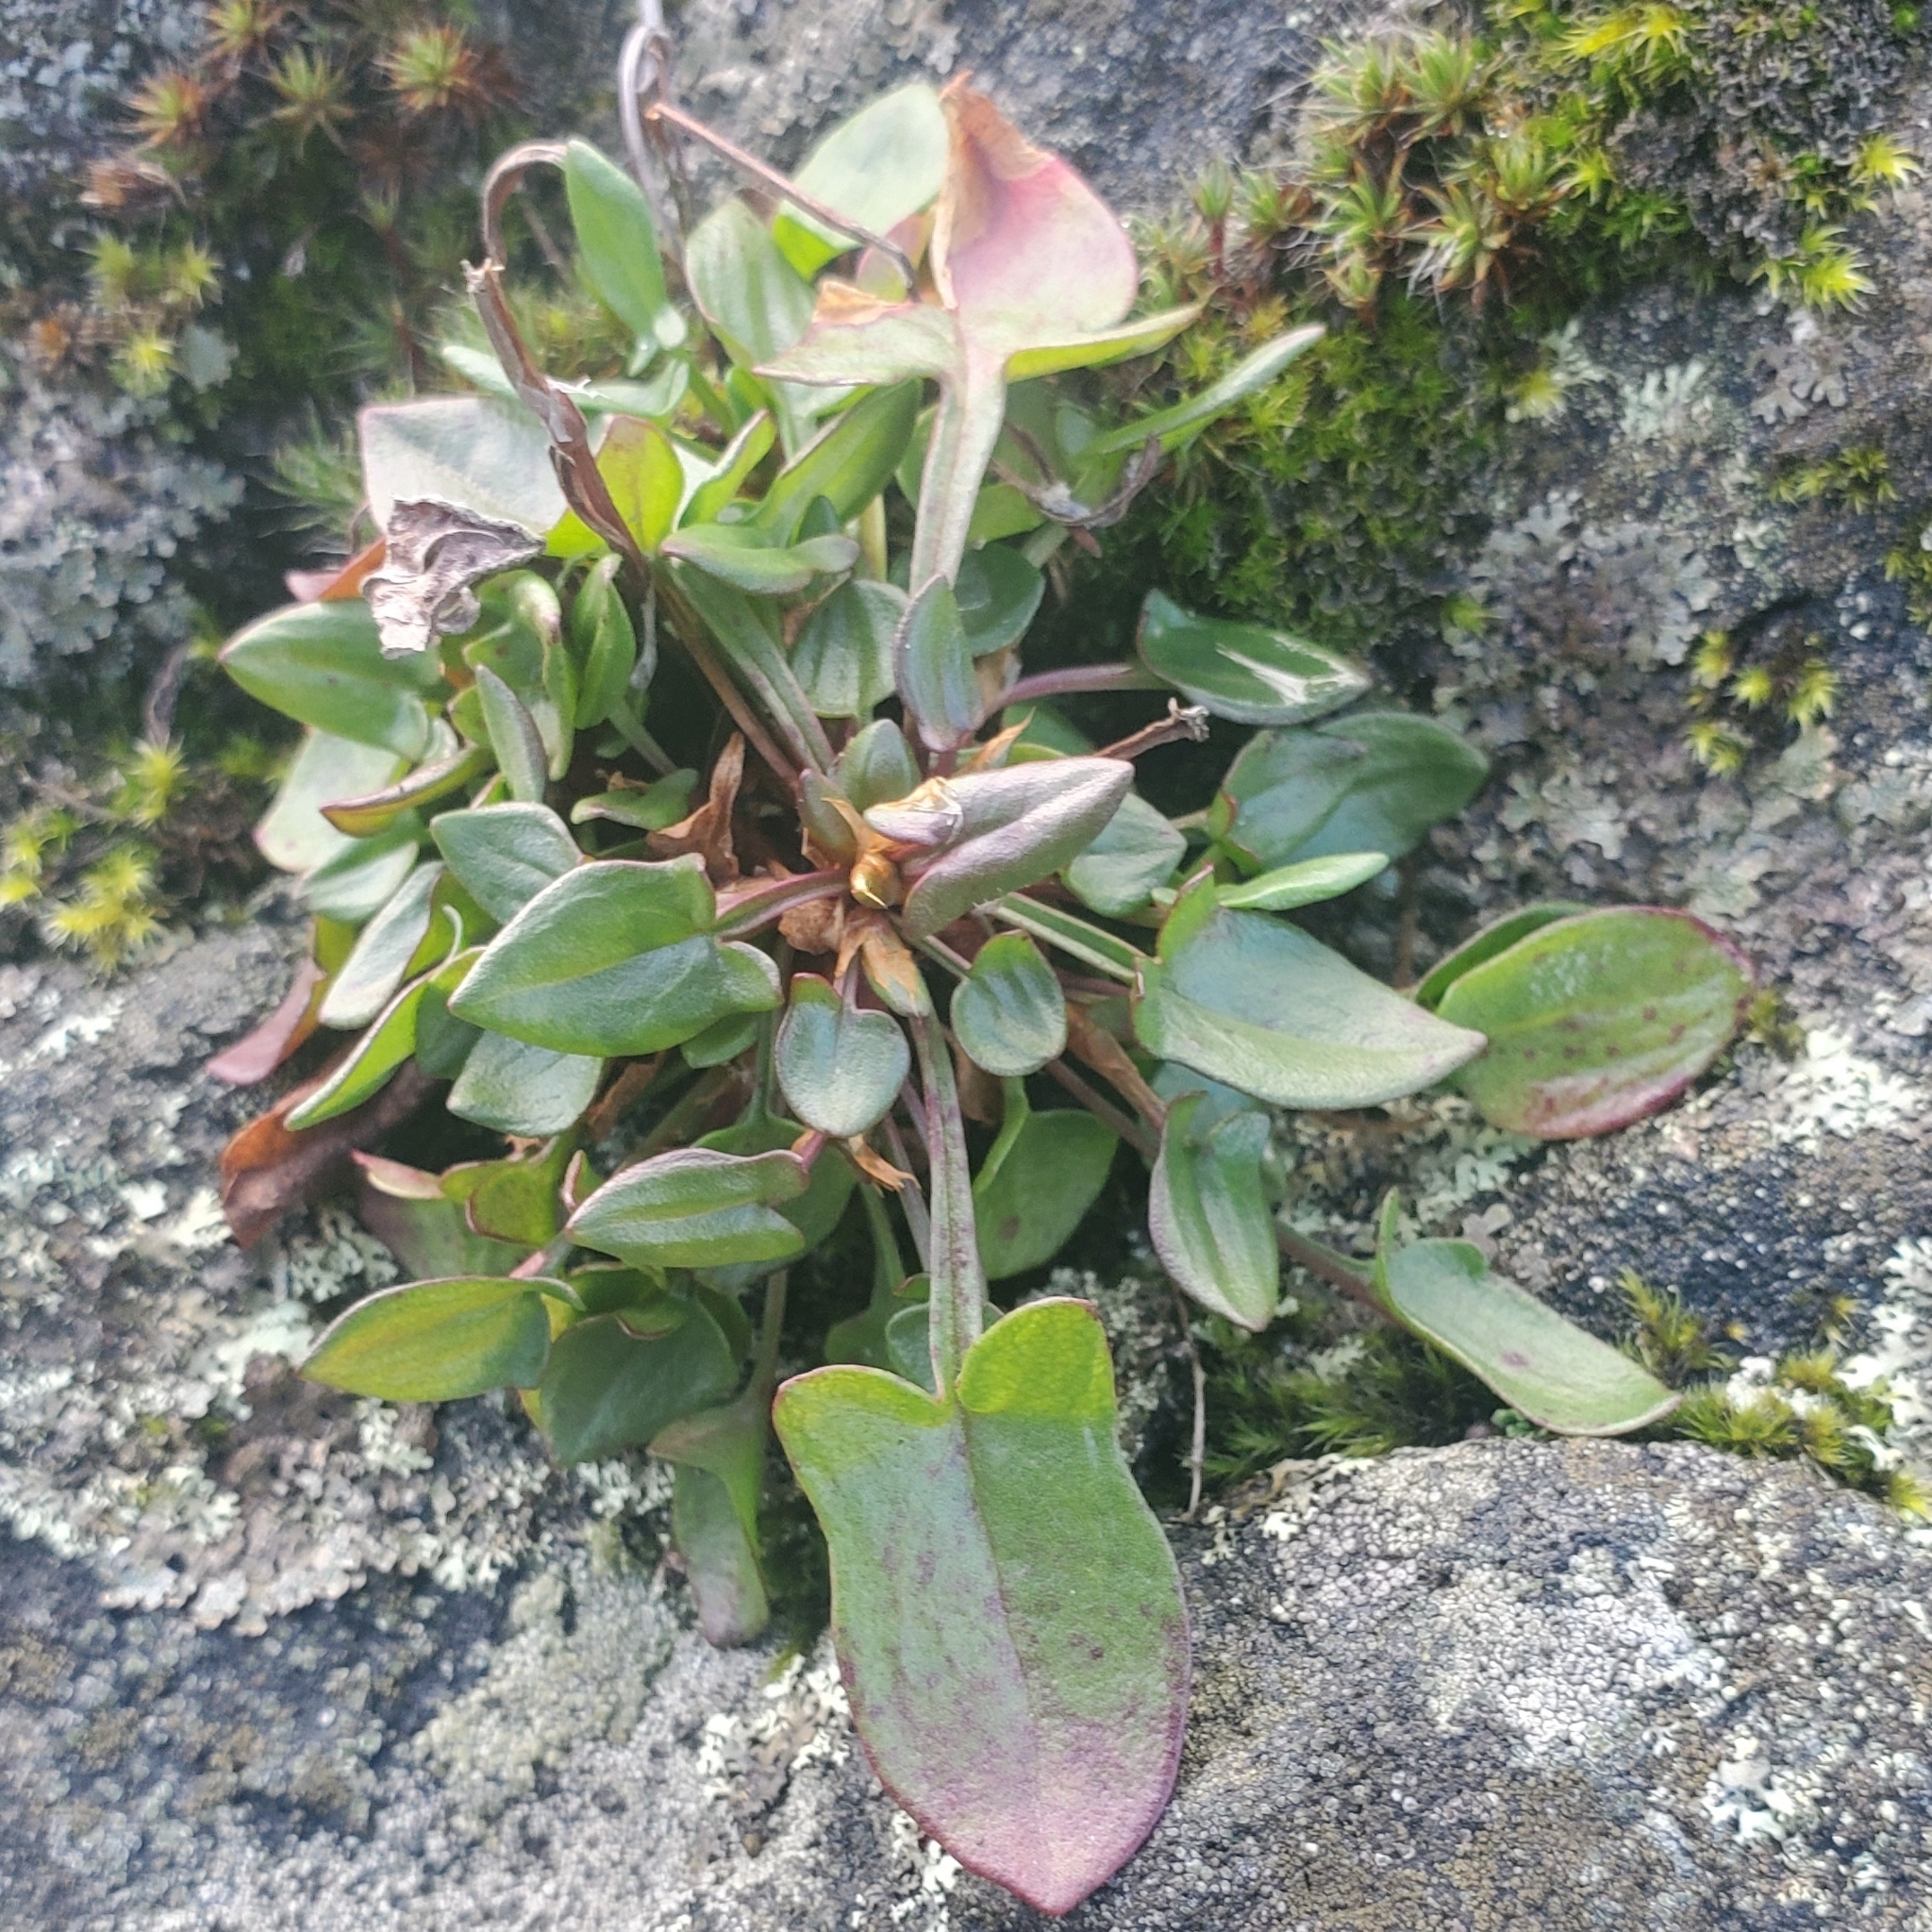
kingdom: Plantae
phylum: Tracheophyta
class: Magnoliopsida
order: Caryophyllales
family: Polygonaceae
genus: Rumex
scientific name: Rumex acetosella
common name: Common sheep sorrel
